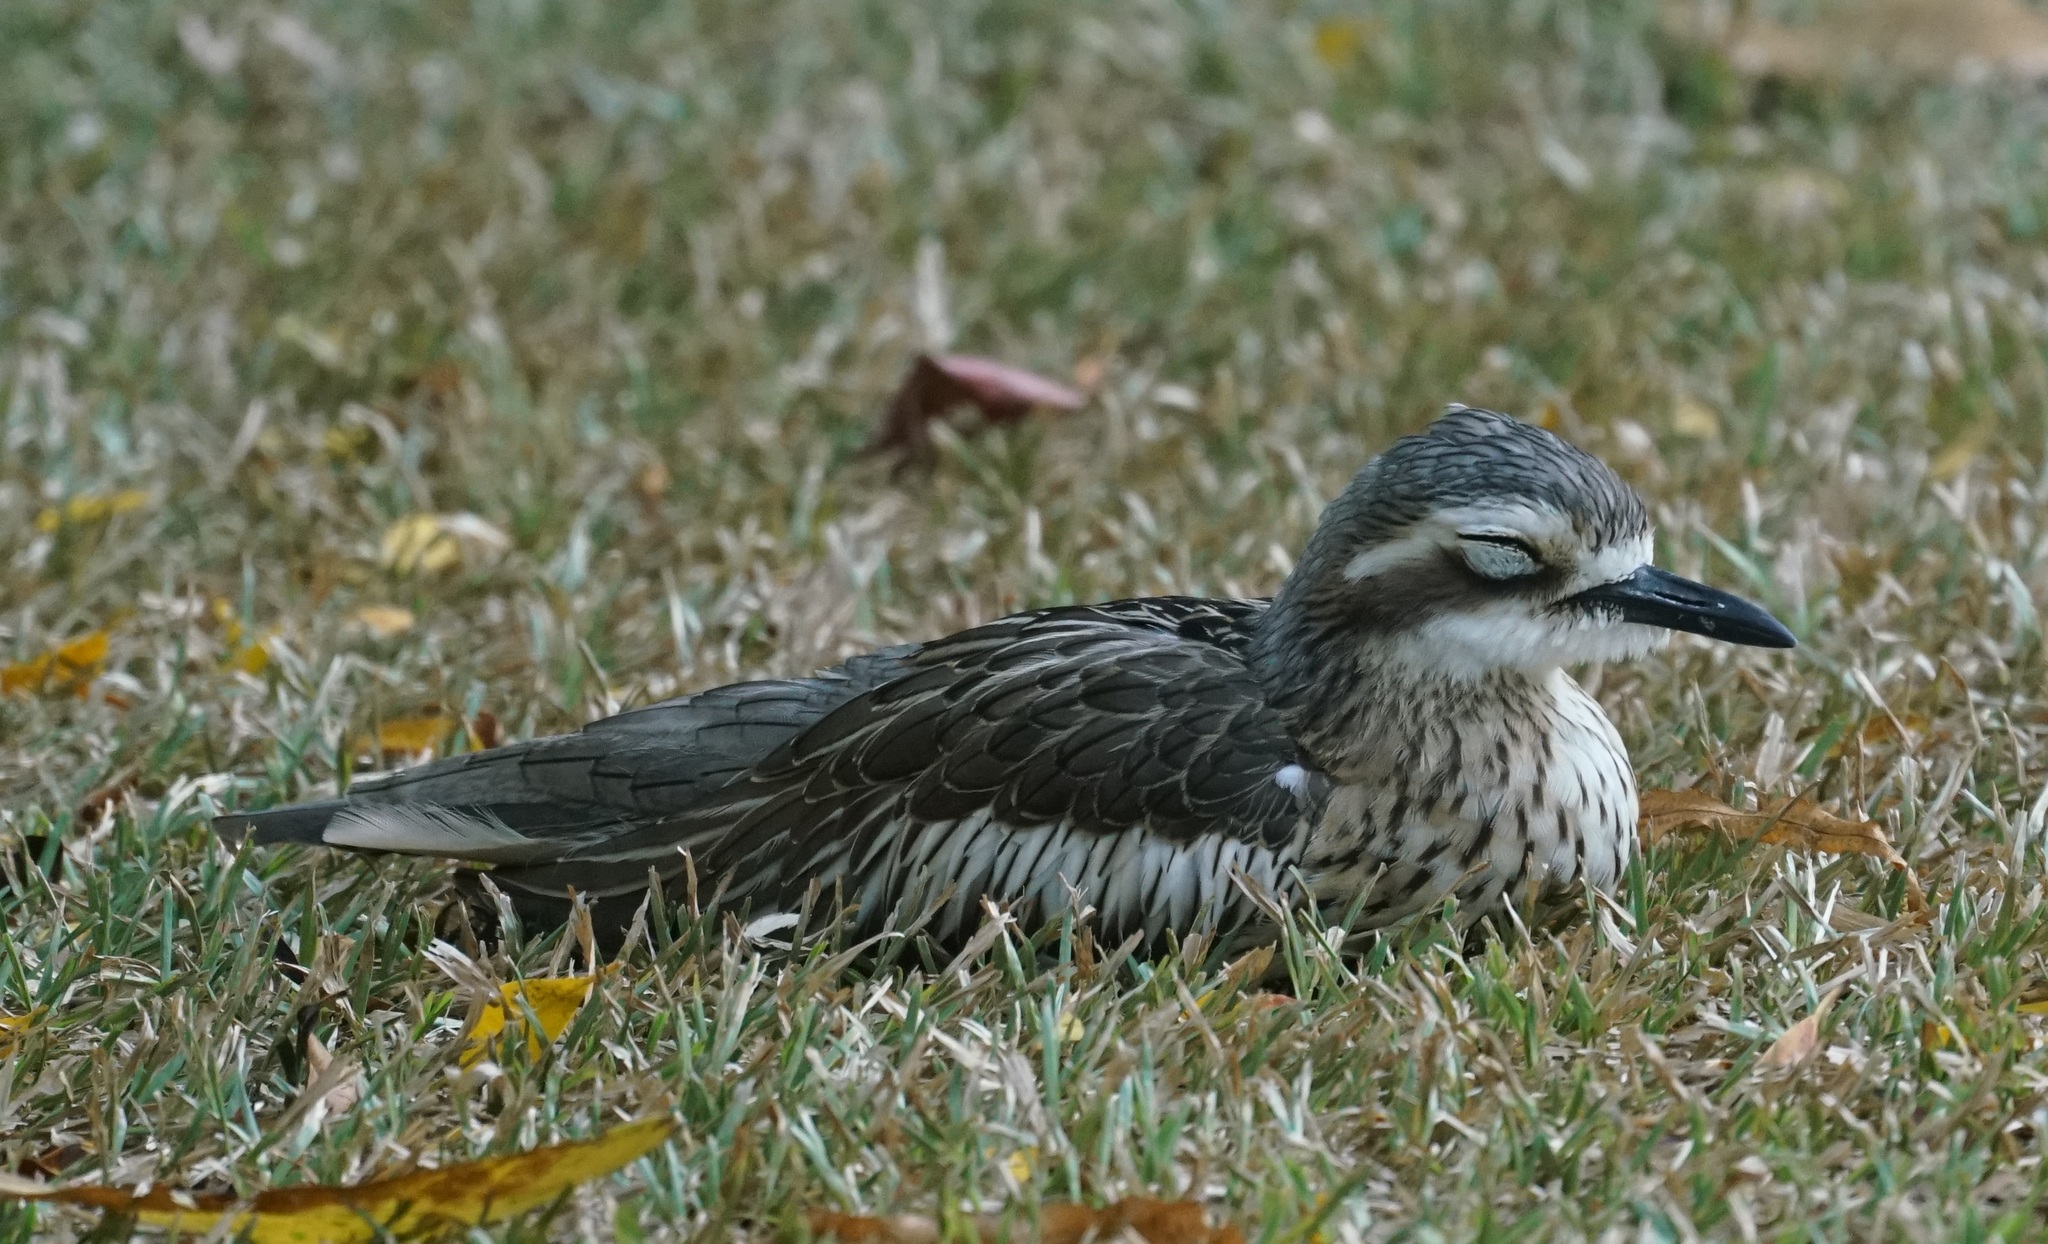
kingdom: Animalia
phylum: Chordata
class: Aves
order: Charadriiformes
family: Burhinidae
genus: Burhinus
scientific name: Burhinus grallarius
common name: Bush stone-curlew
